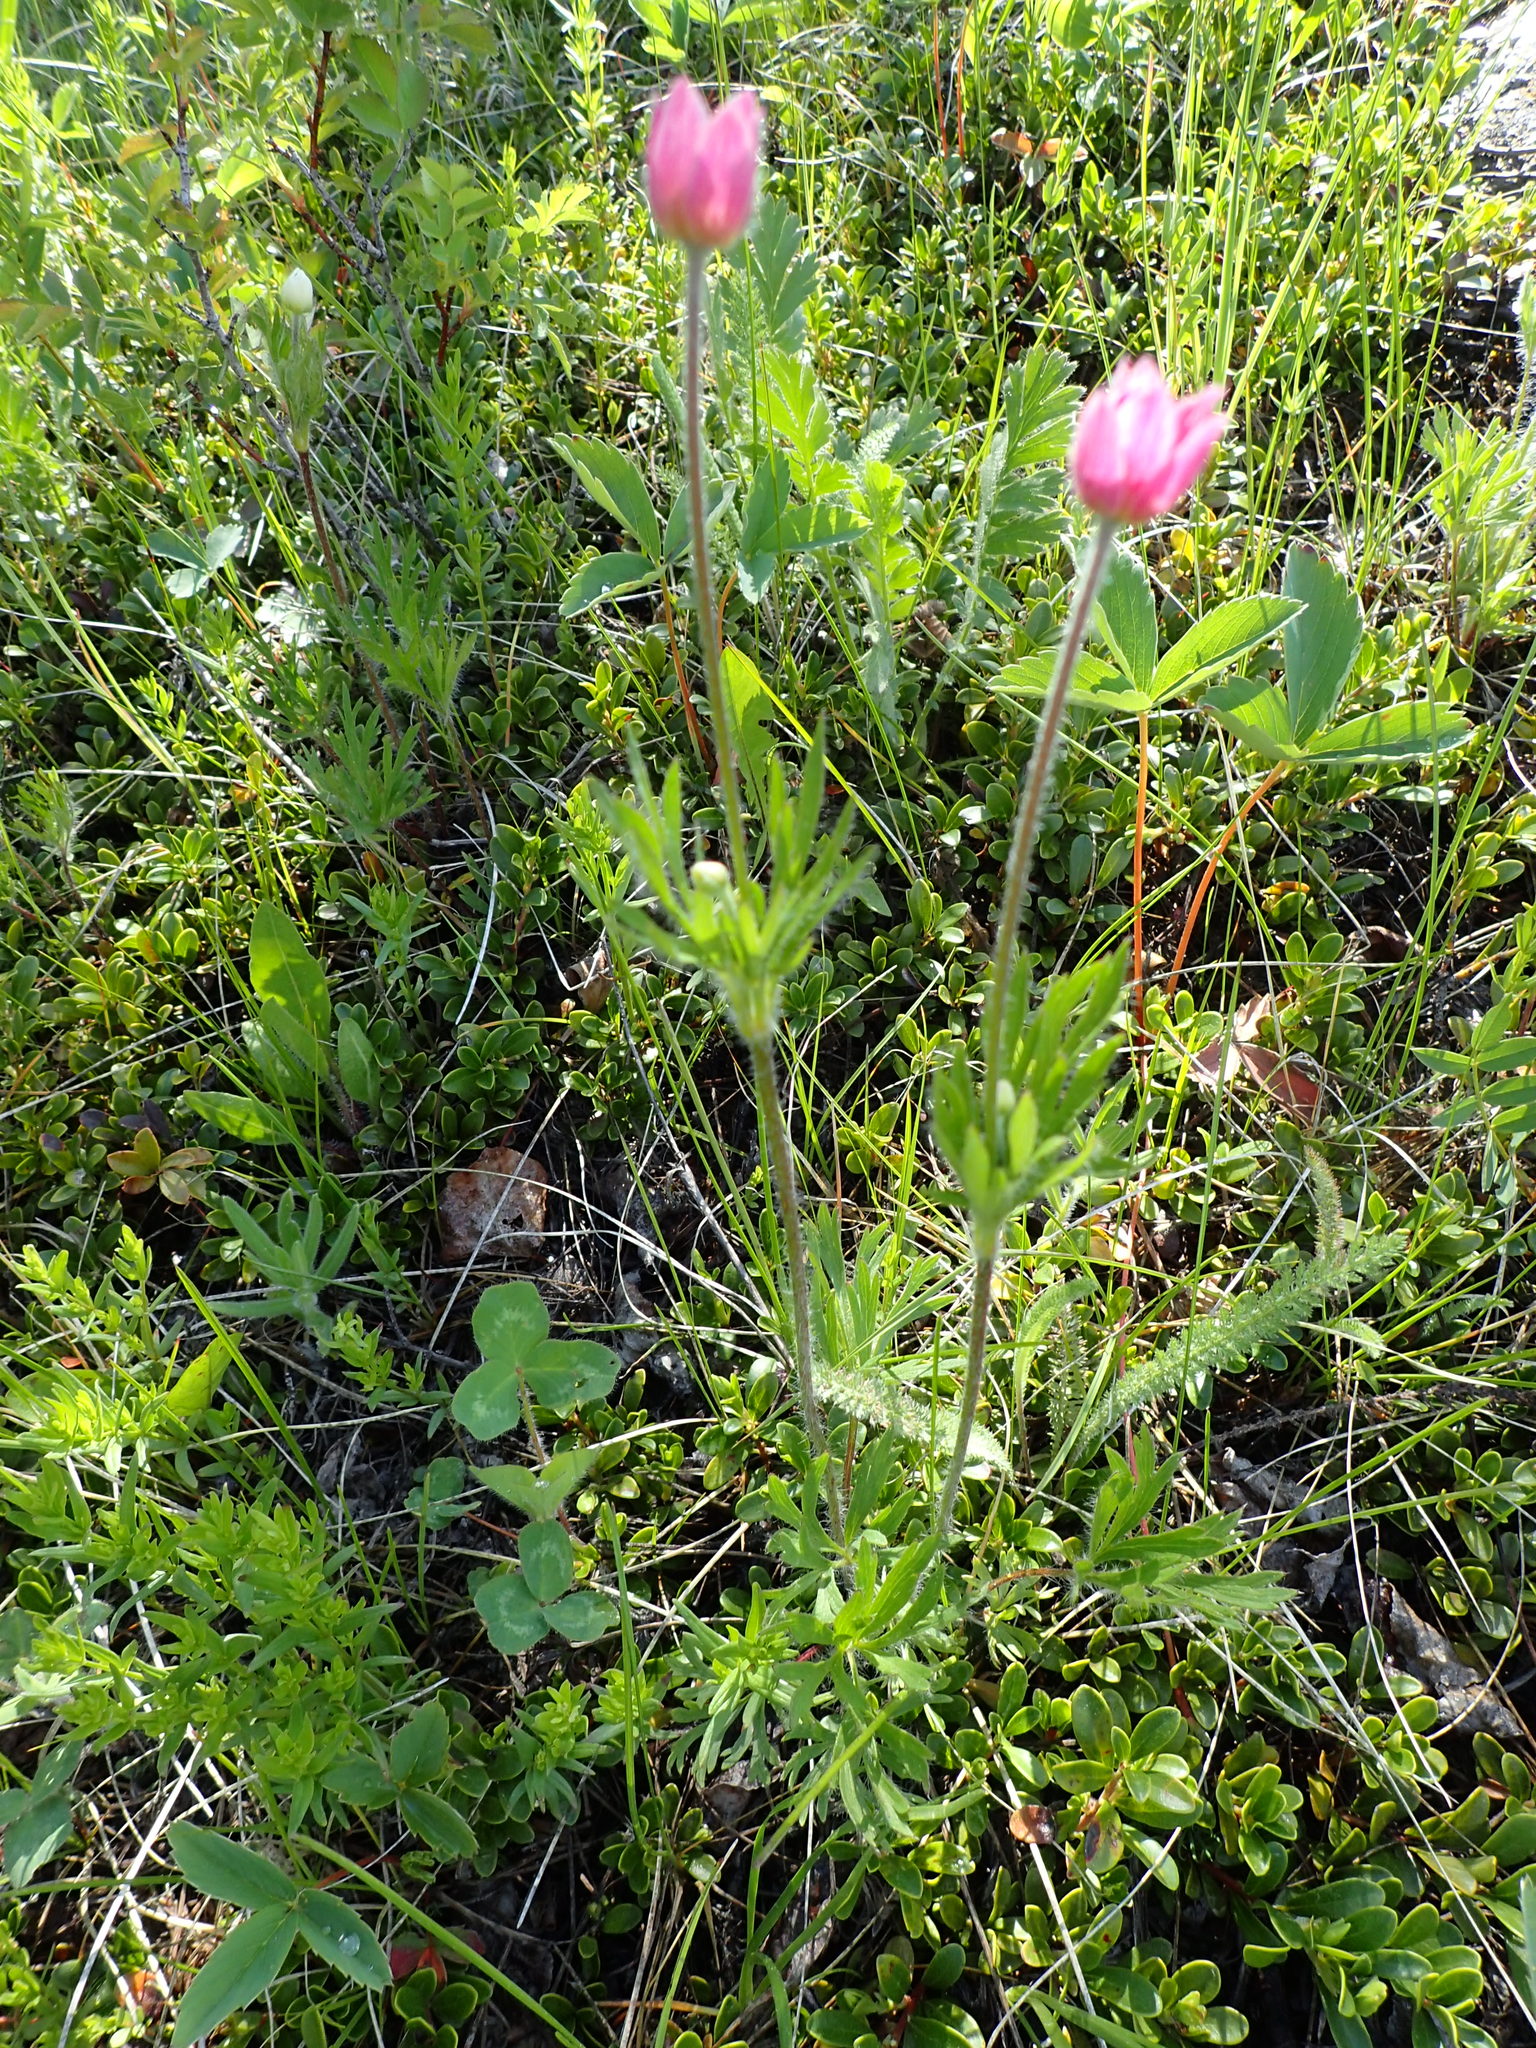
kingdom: Plantae
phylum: Tracheophyta
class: Magnoliopsida
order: Ranunculales
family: Ranunculaceae
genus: Anemone
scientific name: Anemone multifida
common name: Bird's-foot anemone
